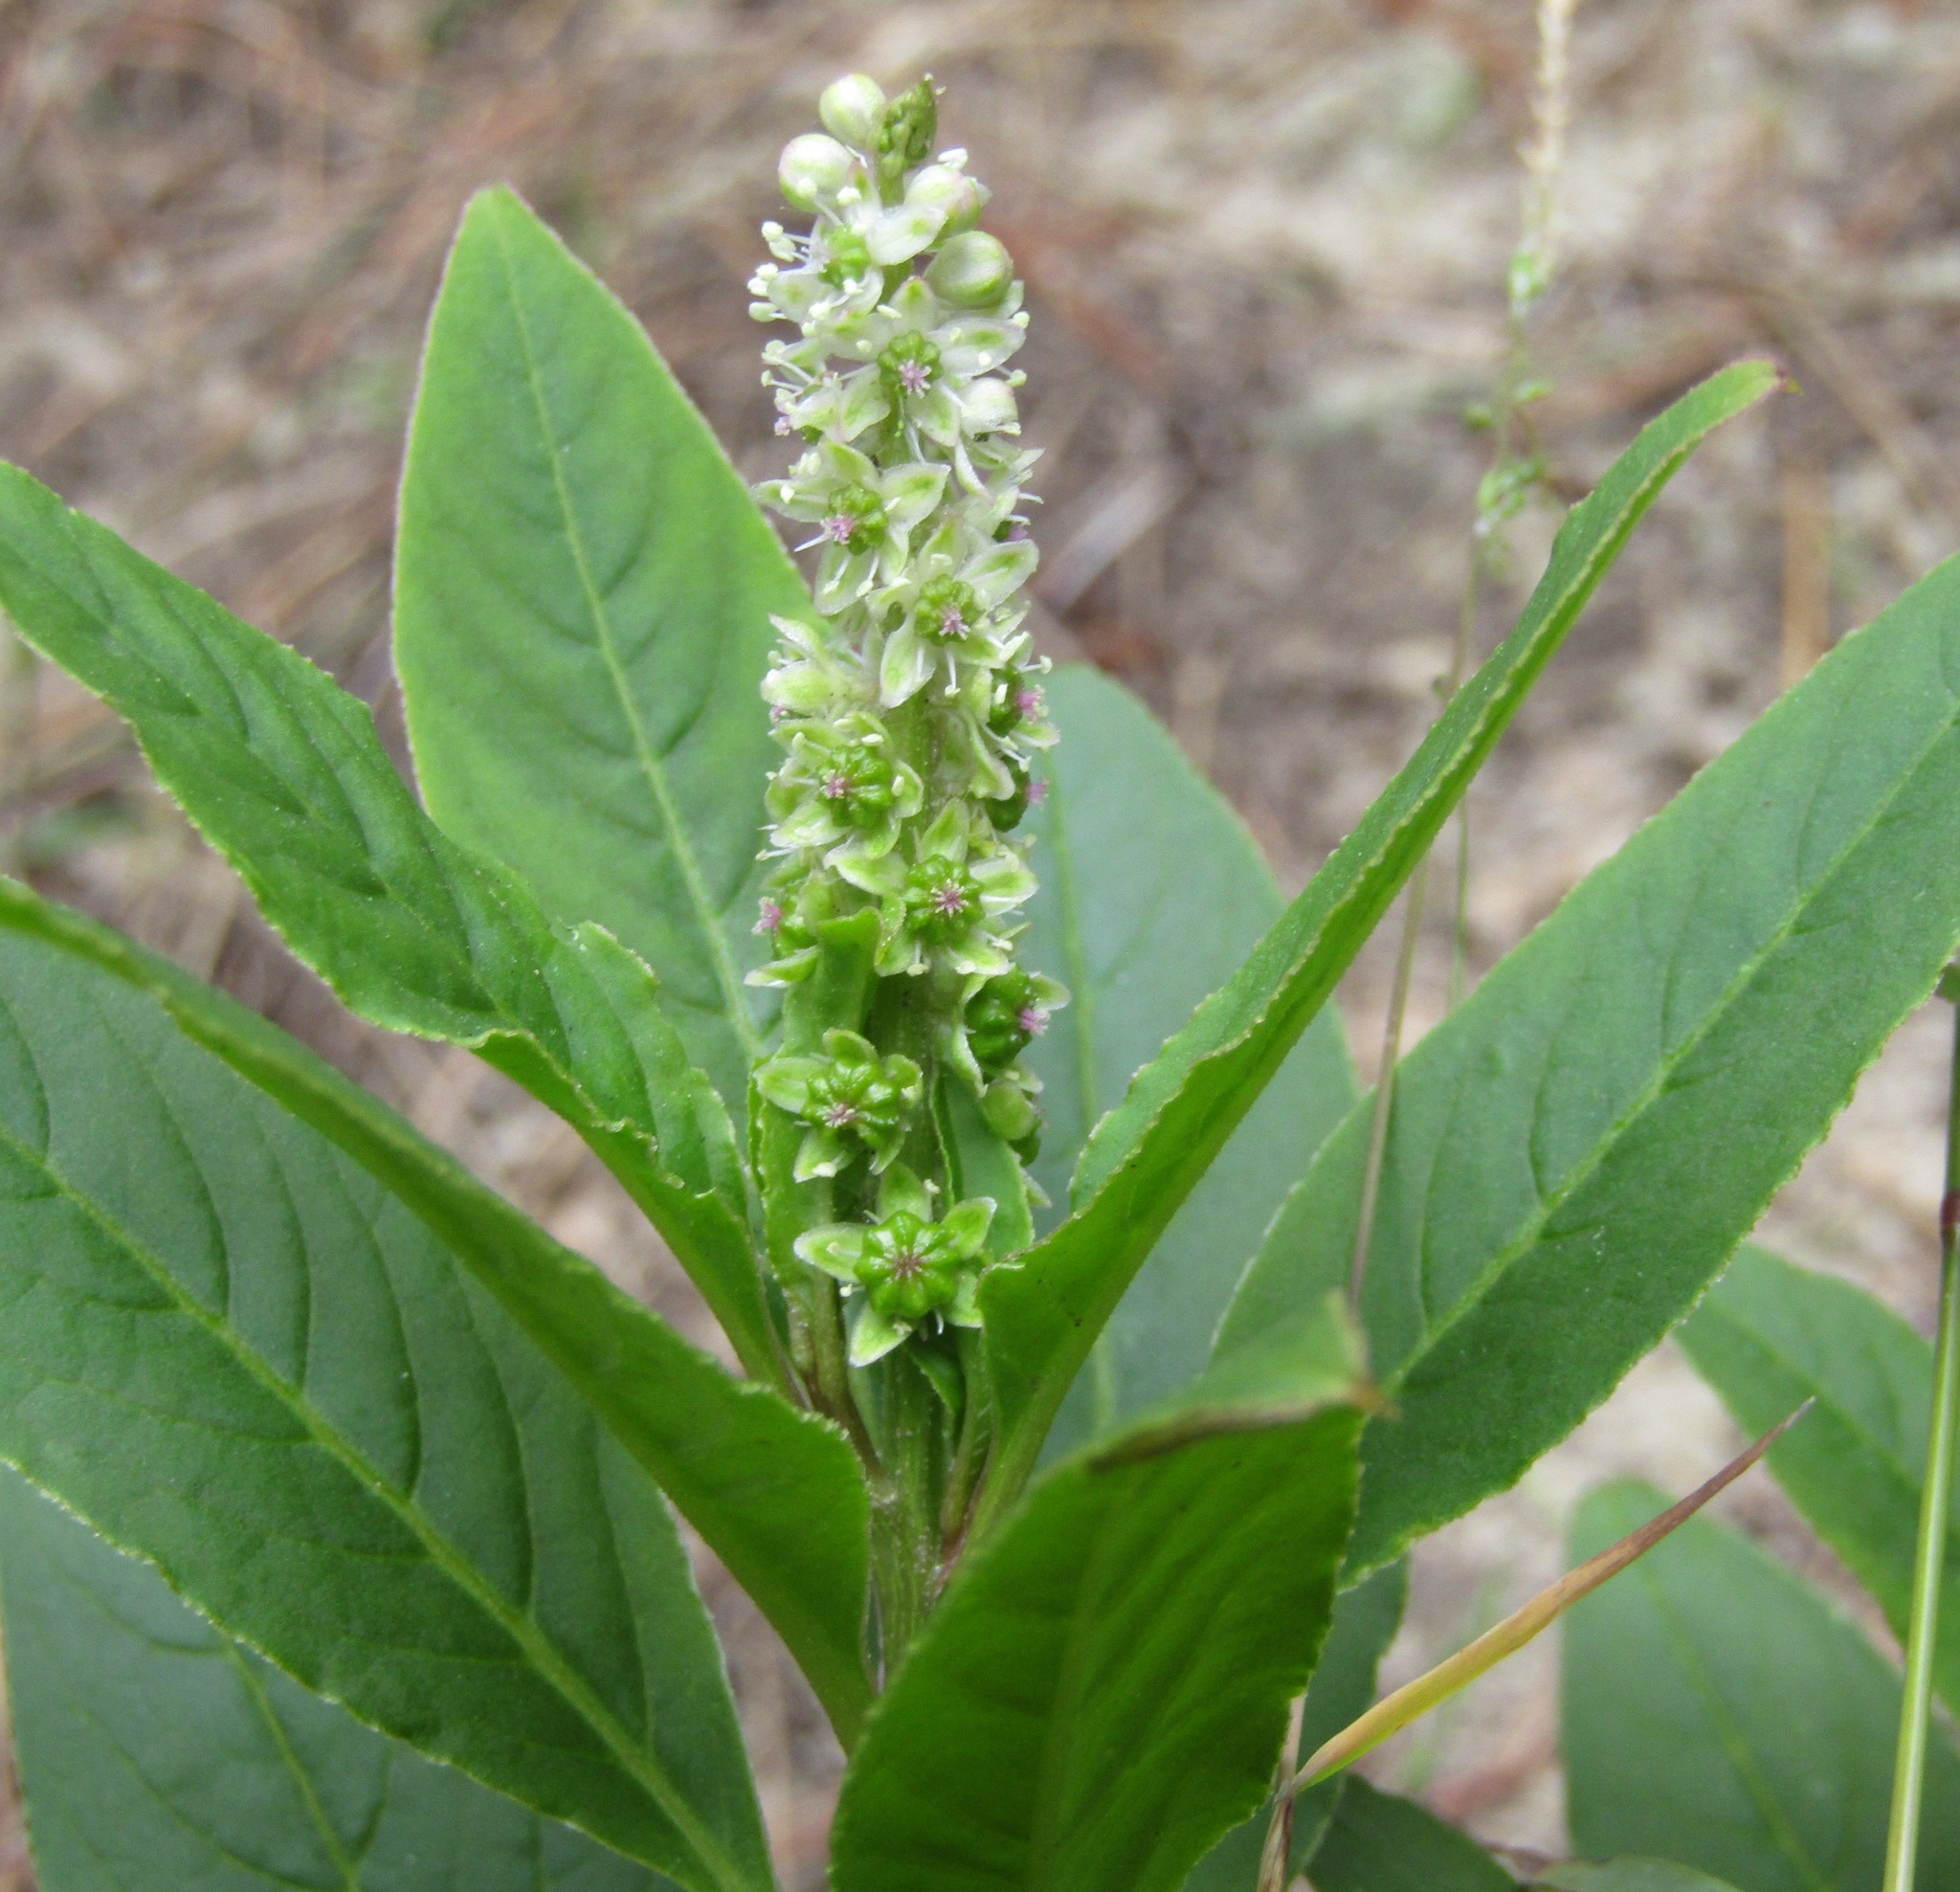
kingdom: Plantae
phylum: Tracheophyta
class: Magnoliopsida
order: Caryophyllales
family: Phytolaccaceae
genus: Phytolacca
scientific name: Phytolacca icosandra
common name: Button pokeweed
